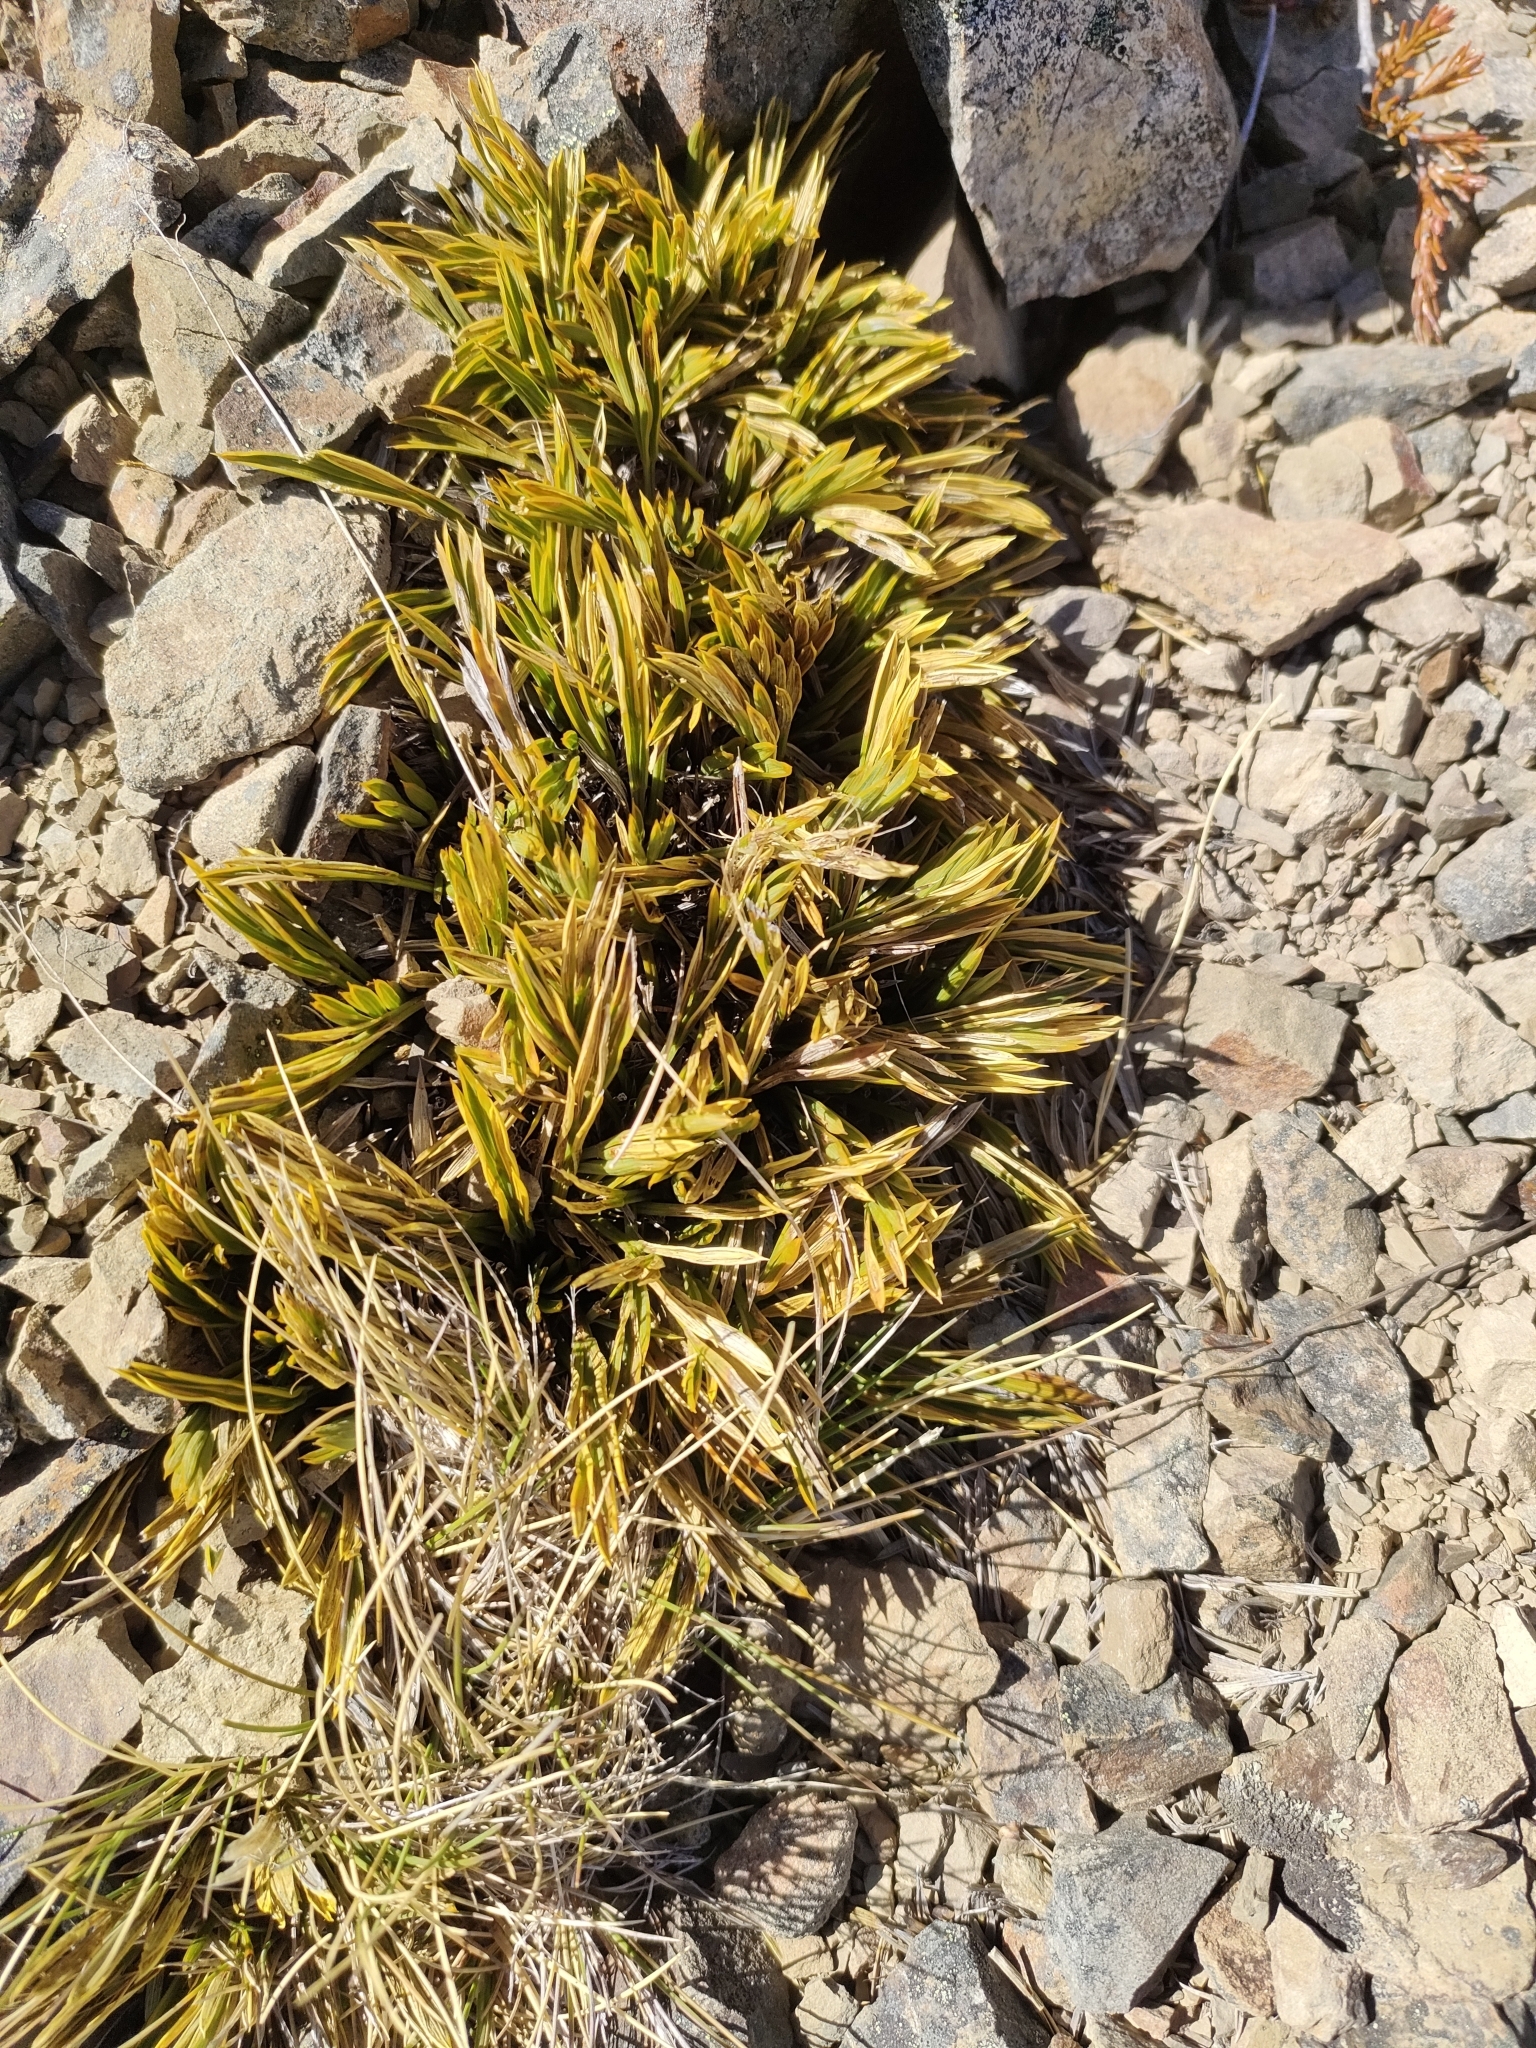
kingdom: Plantae
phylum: Tracheophyta
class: Magnoliopsida
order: Apiales
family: Apiaceae
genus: Aciphylla
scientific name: Aciphylla monroi
